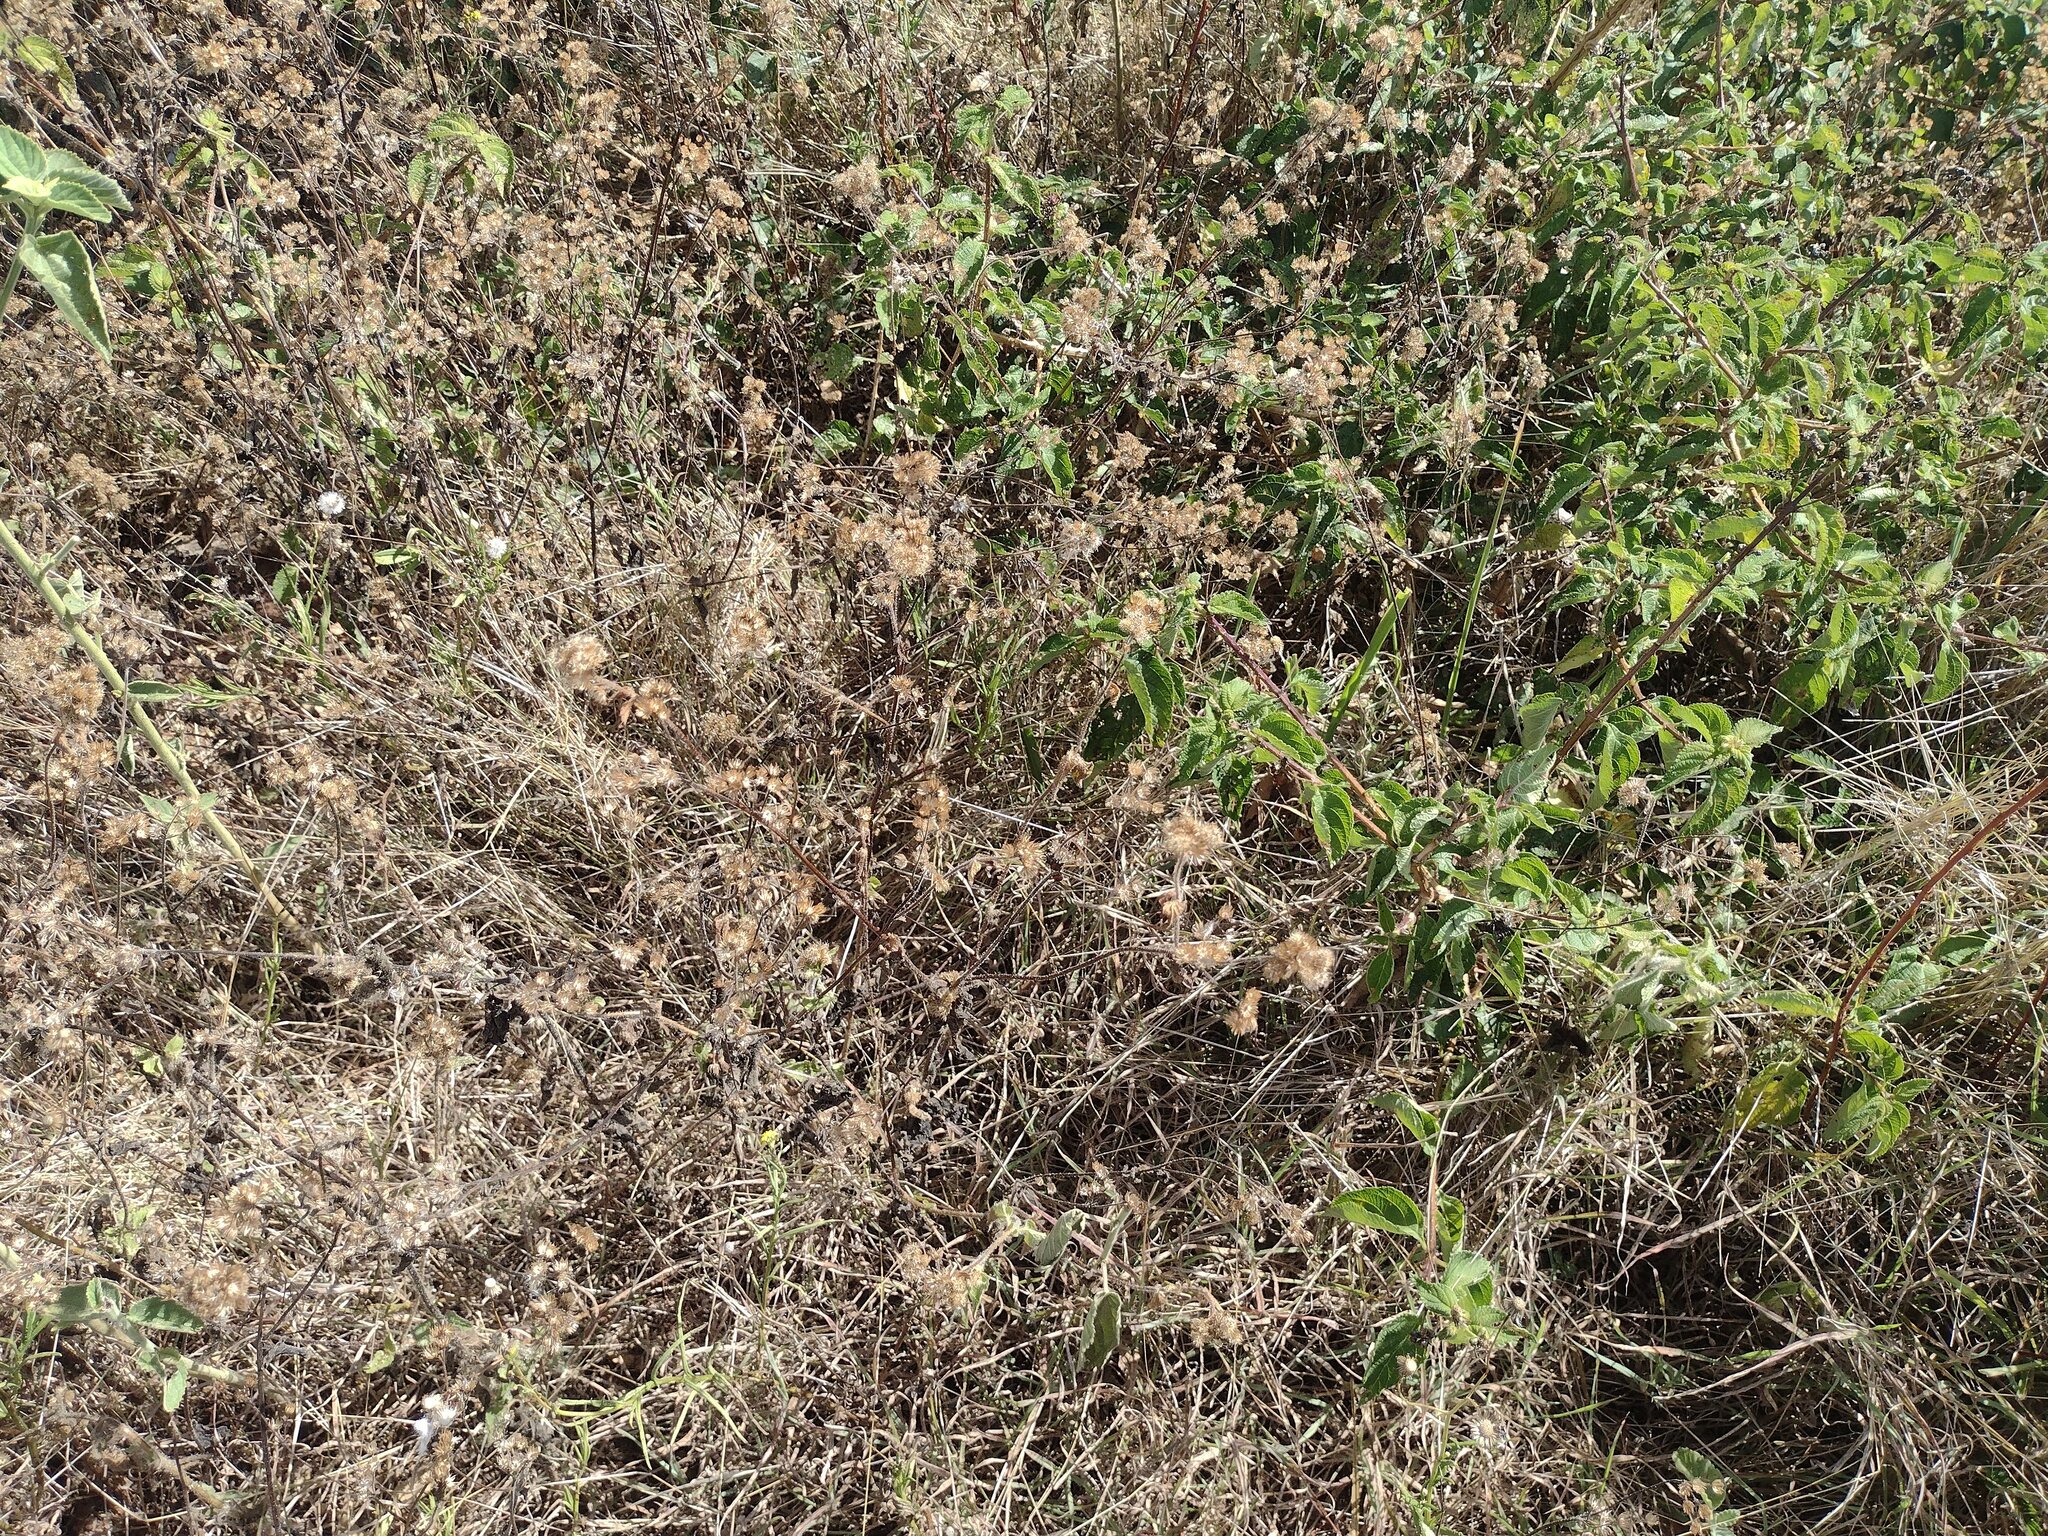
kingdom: Plantae
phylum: Tracheophyta
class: Magnoliopsida
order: Asterales
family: Asteraceae
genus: Ageratum
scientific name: Ageratum conyzoides
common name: Tropical whiteweed
